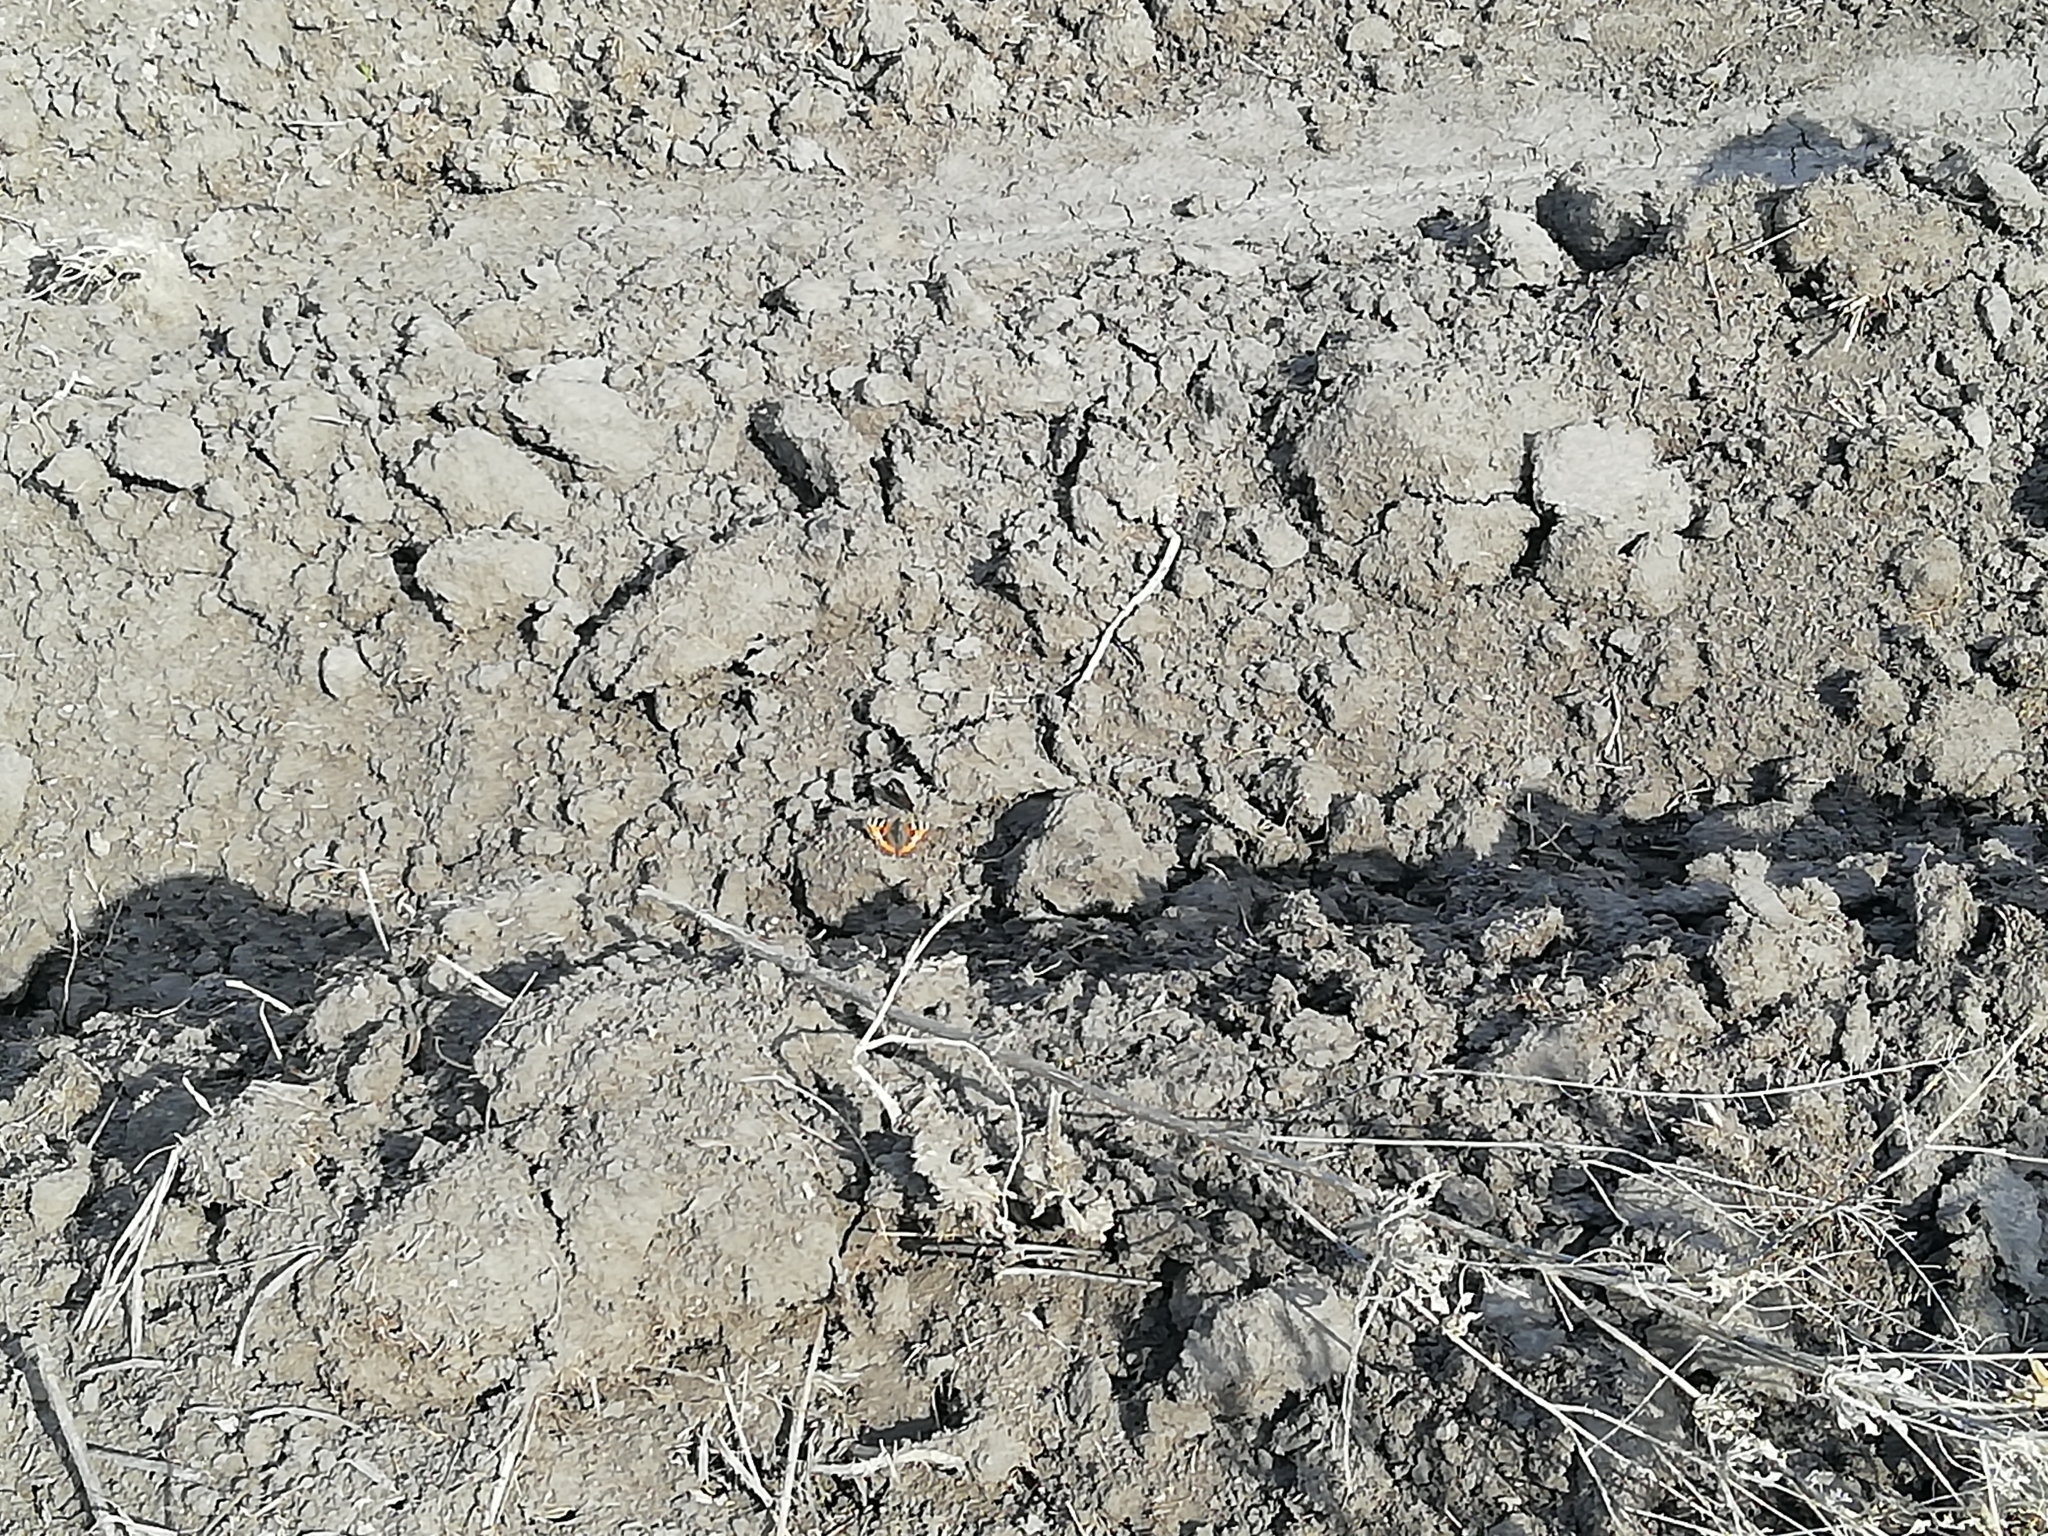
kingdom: Animalia
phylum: Arthropoda
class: Insecta
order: Lepidoptera
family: Nymphalidae
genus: Aglais
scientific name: Aglais urticae
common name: Small tortoiseshell
